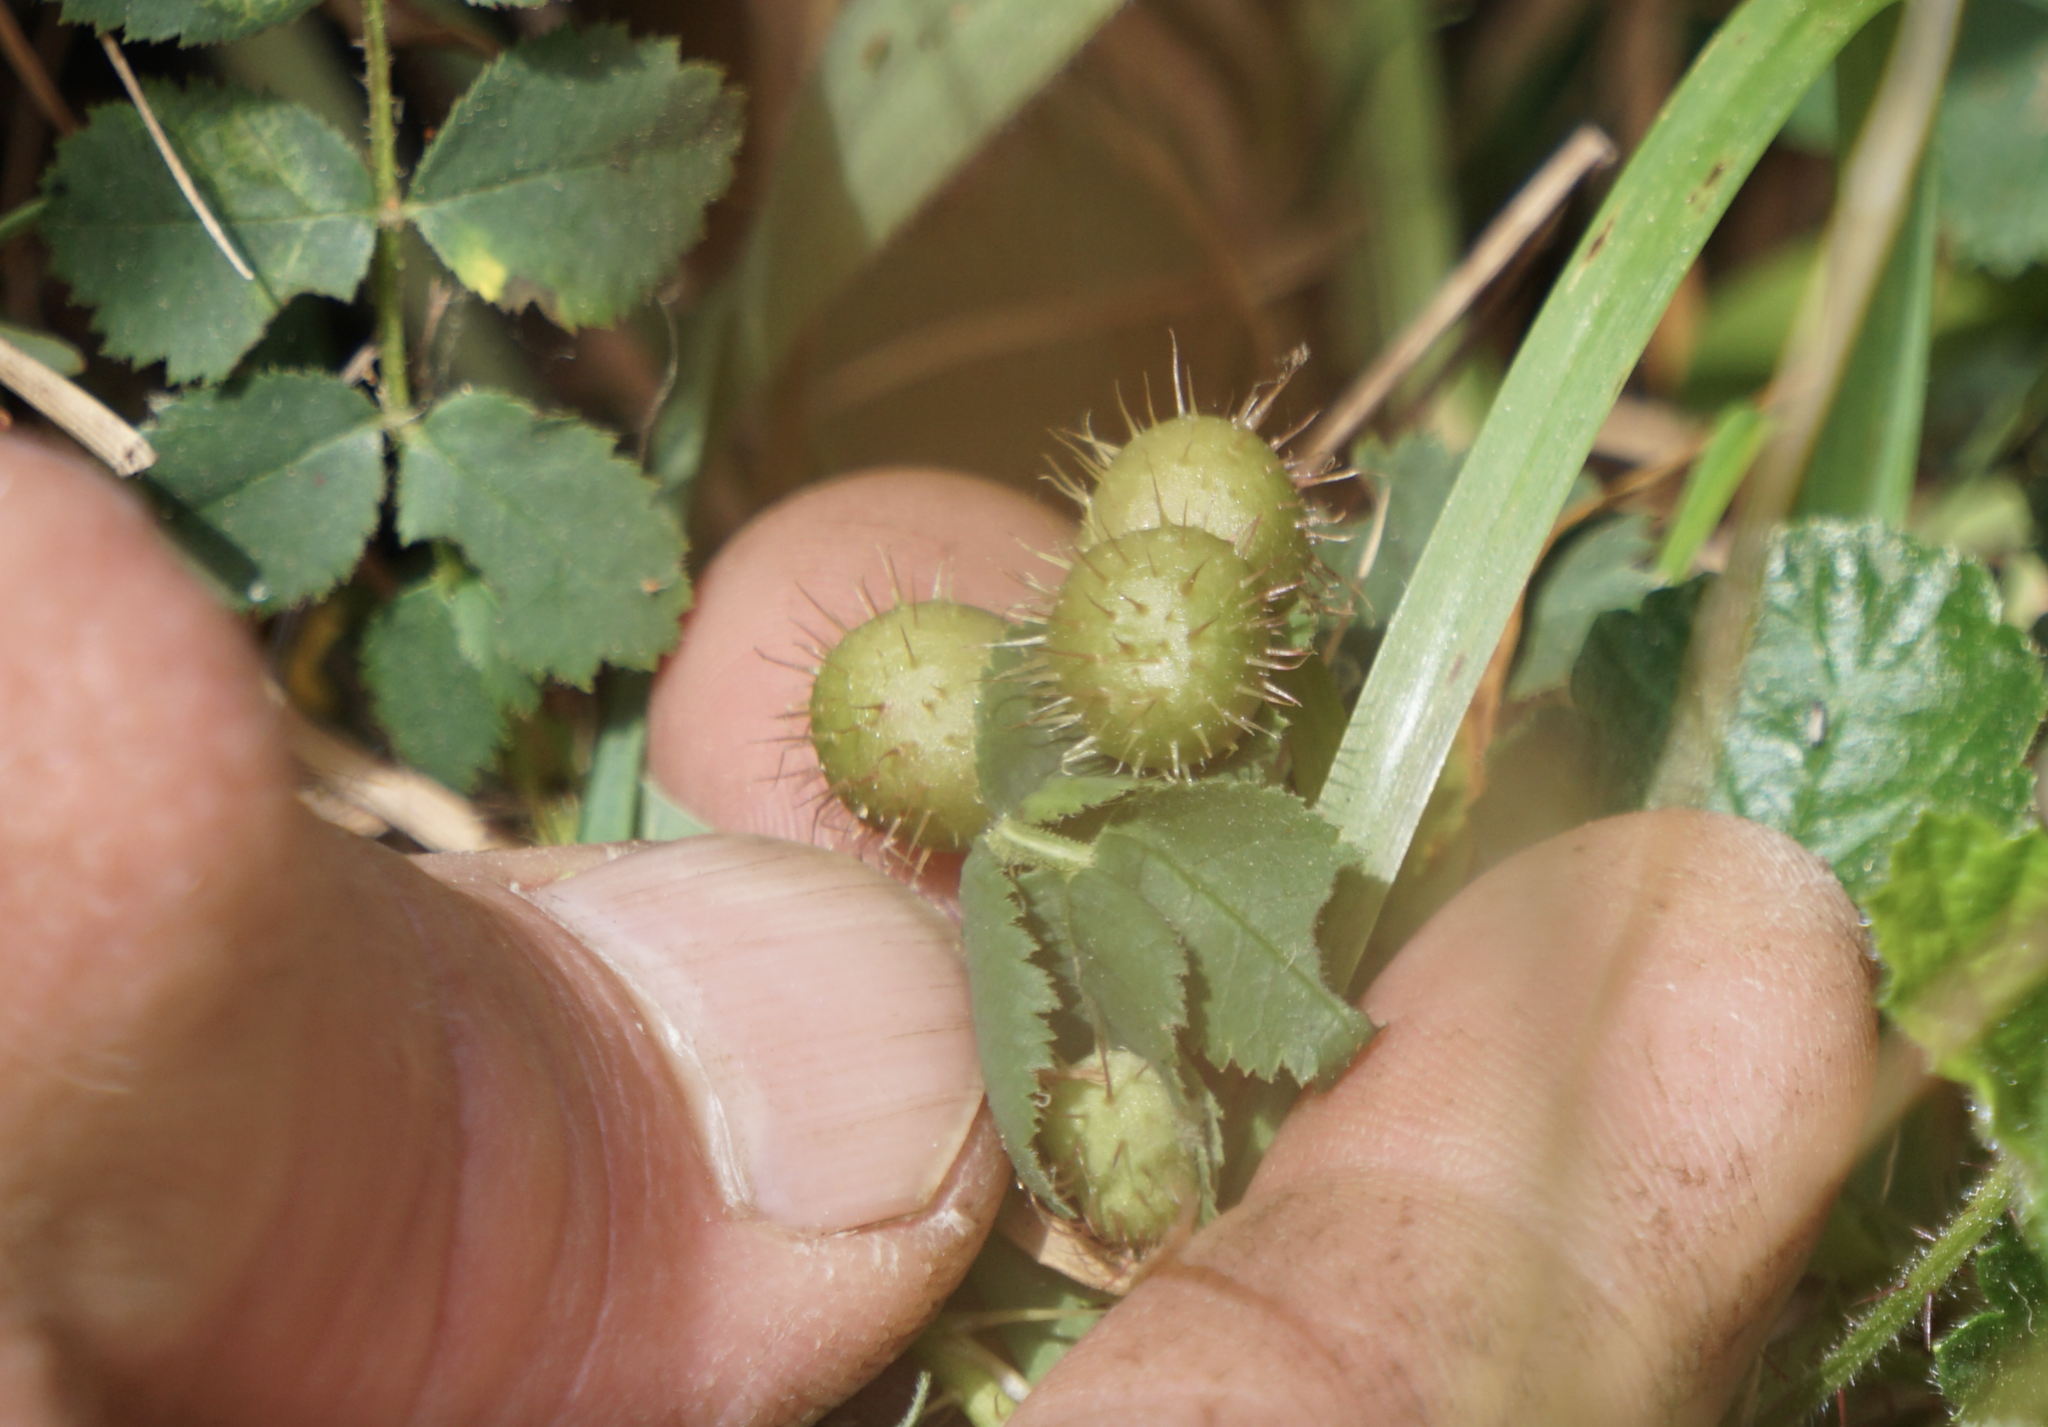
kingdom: Animalia
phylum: Arthropoda
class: Insecta
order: Hymenoptera
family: Cynipidae
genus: Diplolepis
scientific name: Diplolepis polita
